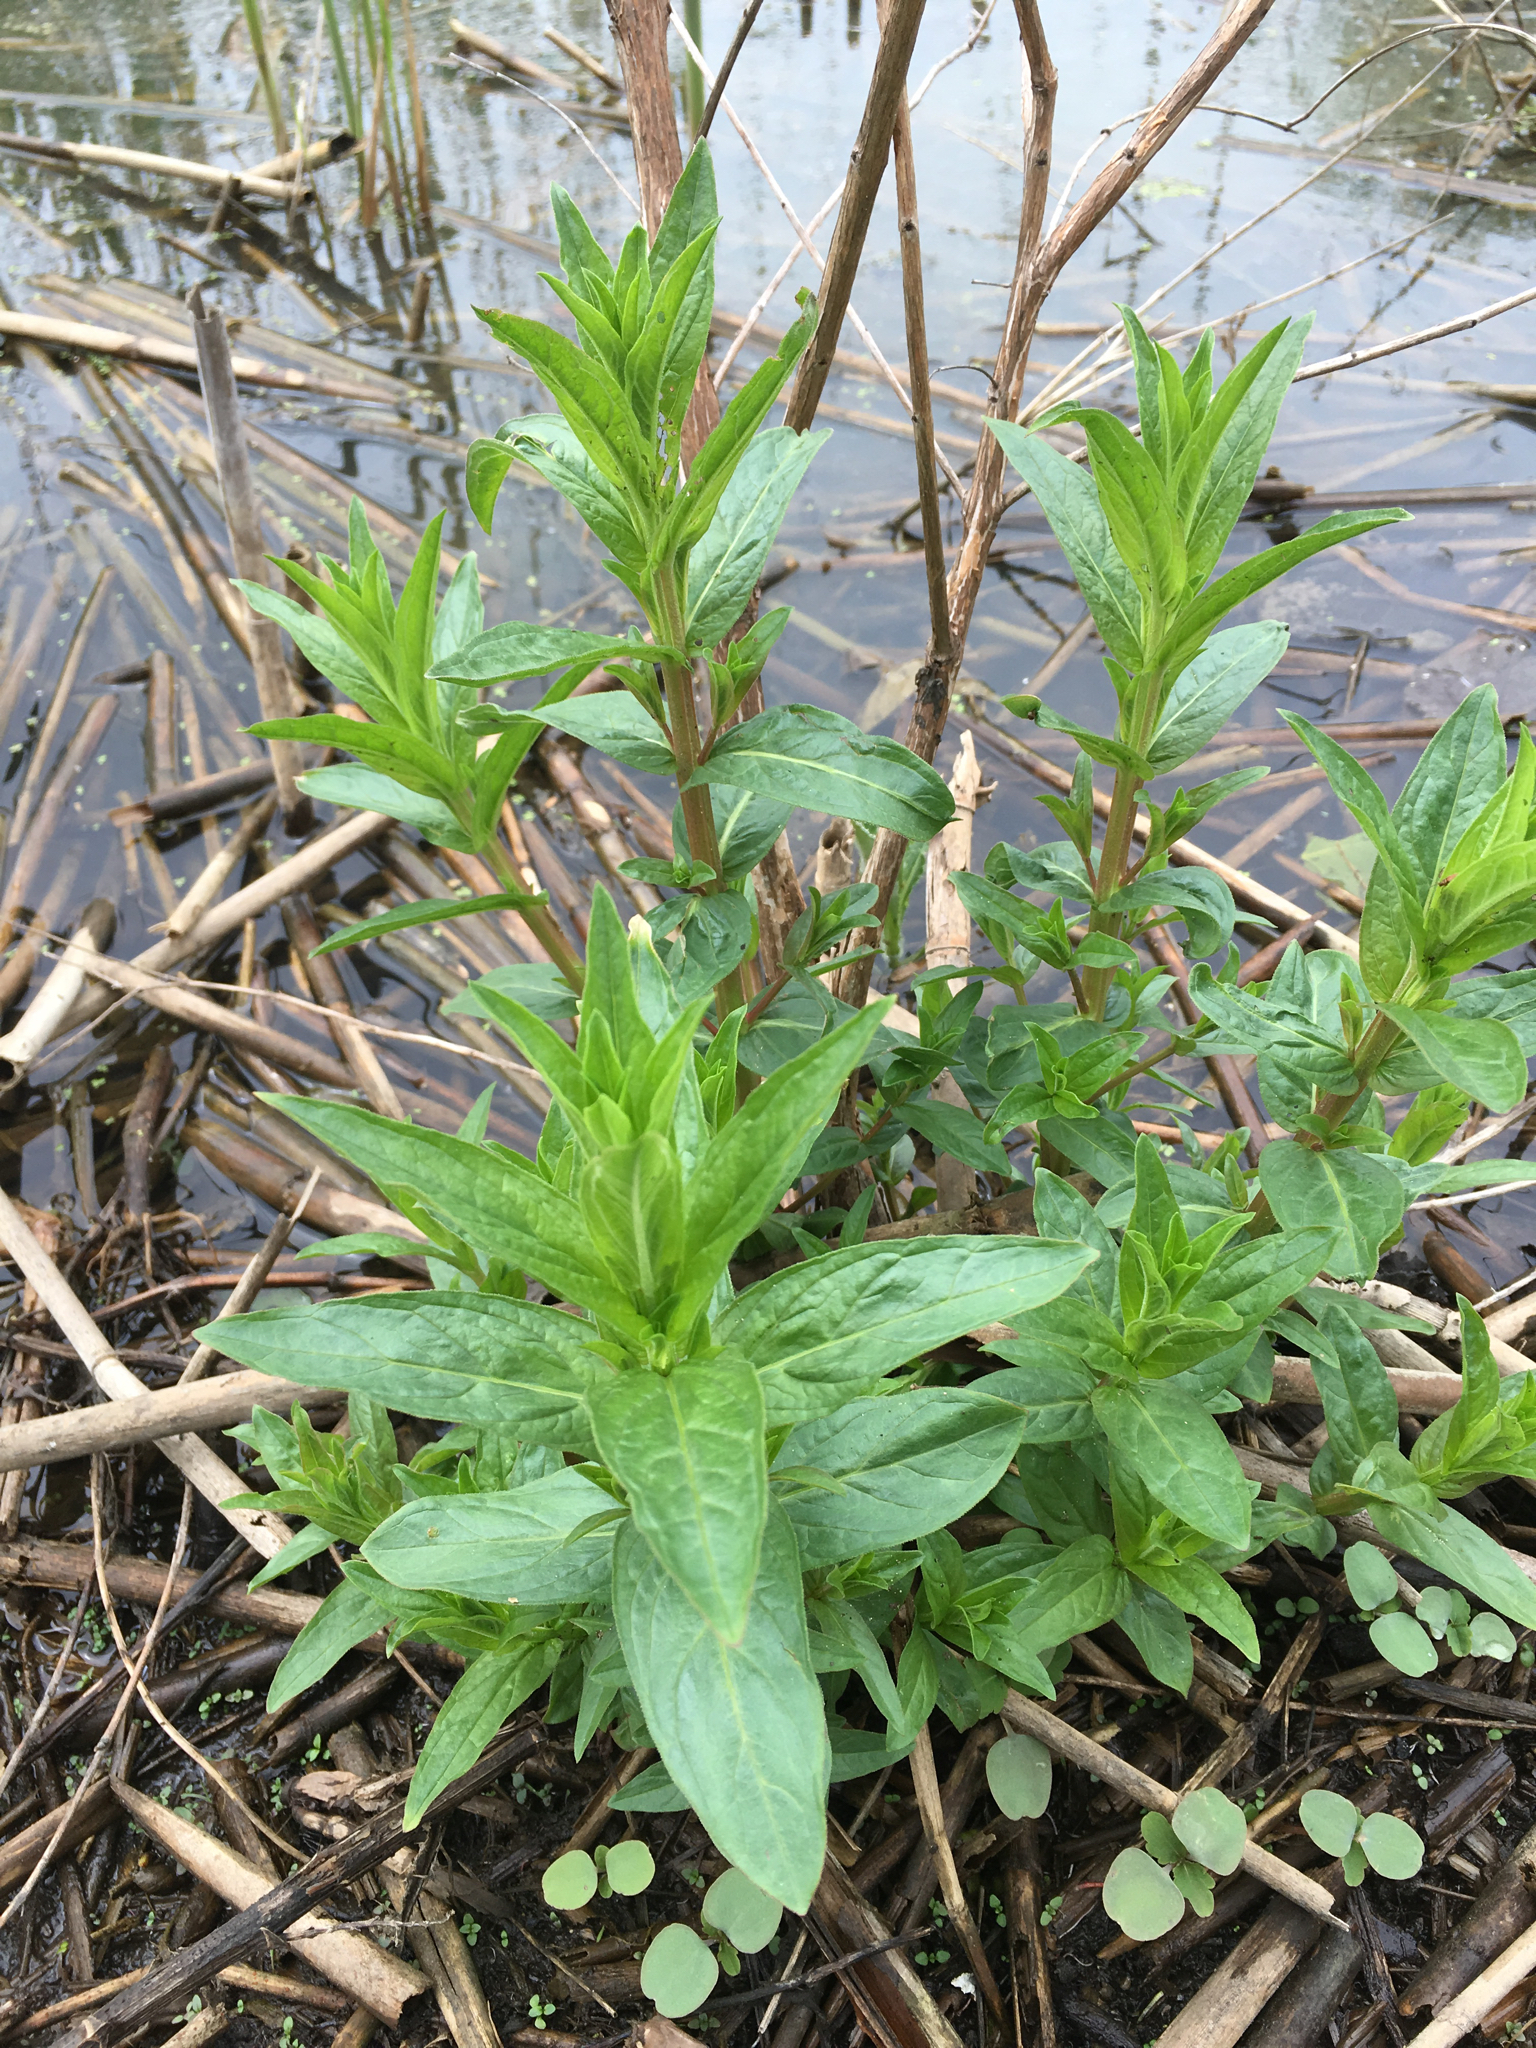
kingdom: Plantae
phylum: Tracheophyta
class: Magnoliopsida
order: Myrtales
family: Lythraceae
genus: Lythrum
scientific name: Lythrum salicaria
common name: Purple loosestrife
